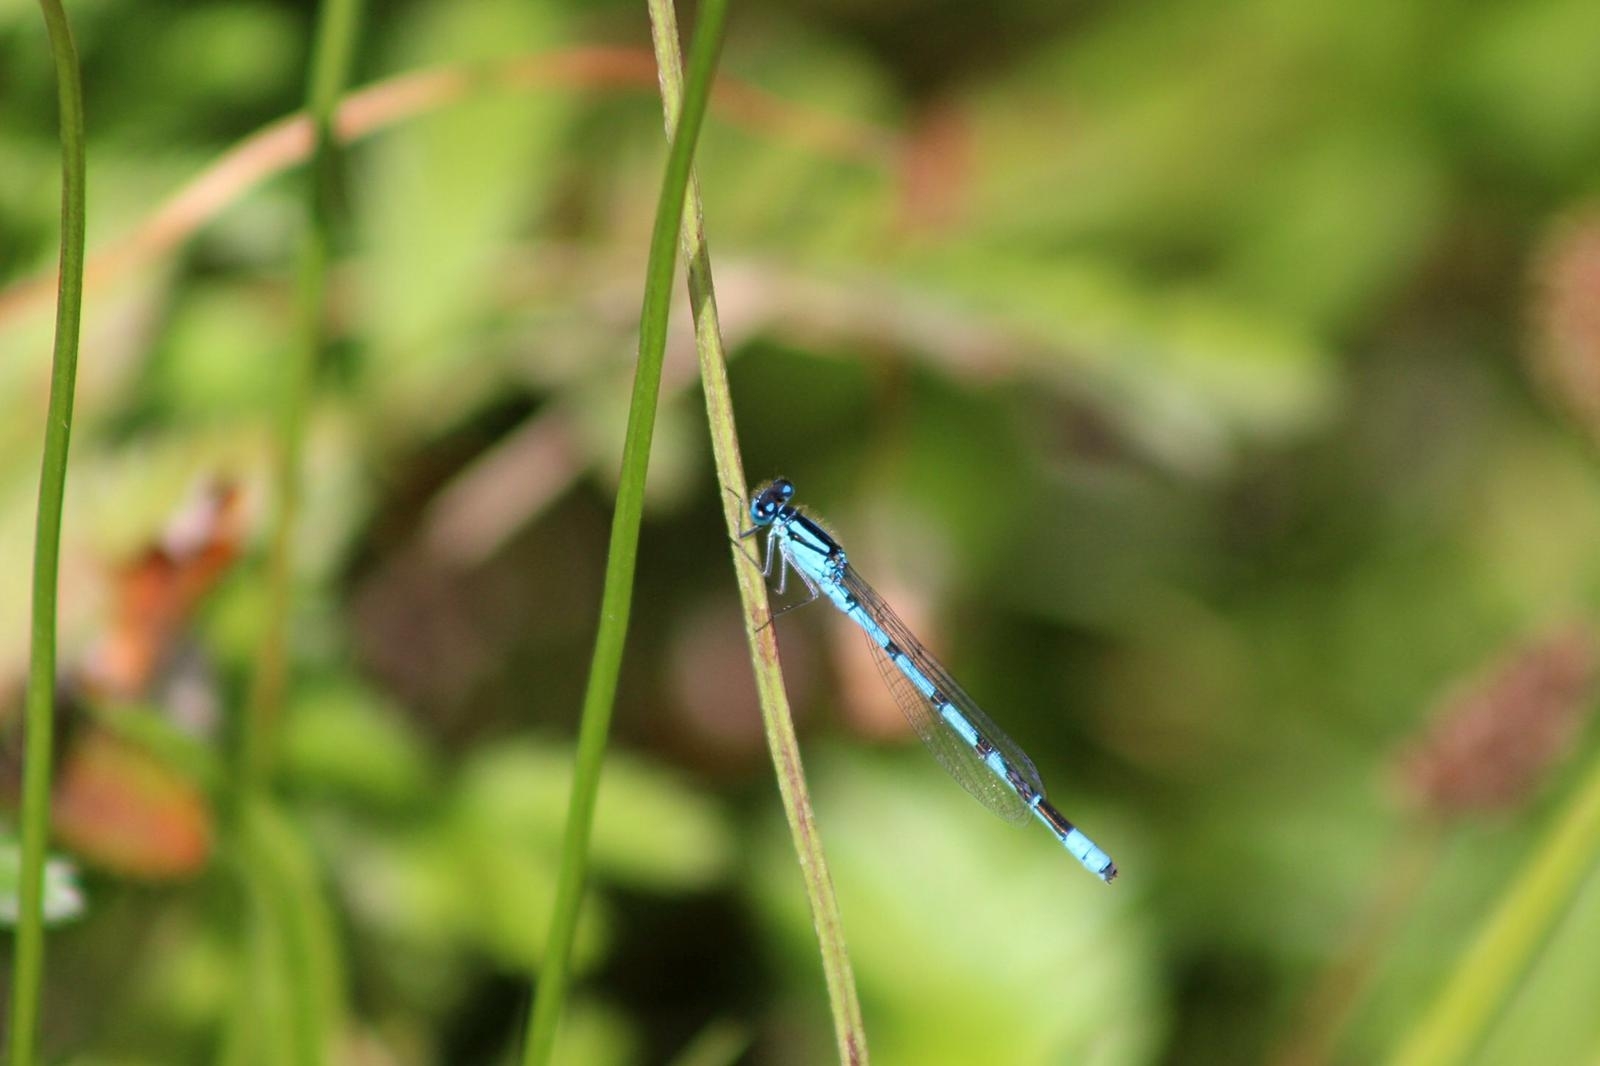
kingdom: Animalia
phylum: Arthropoda
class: Insecta
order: Odonata
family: Coenagrionidae
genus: Enallagma
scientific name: Enallagma cyathigerum
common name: Common blue damselfly
